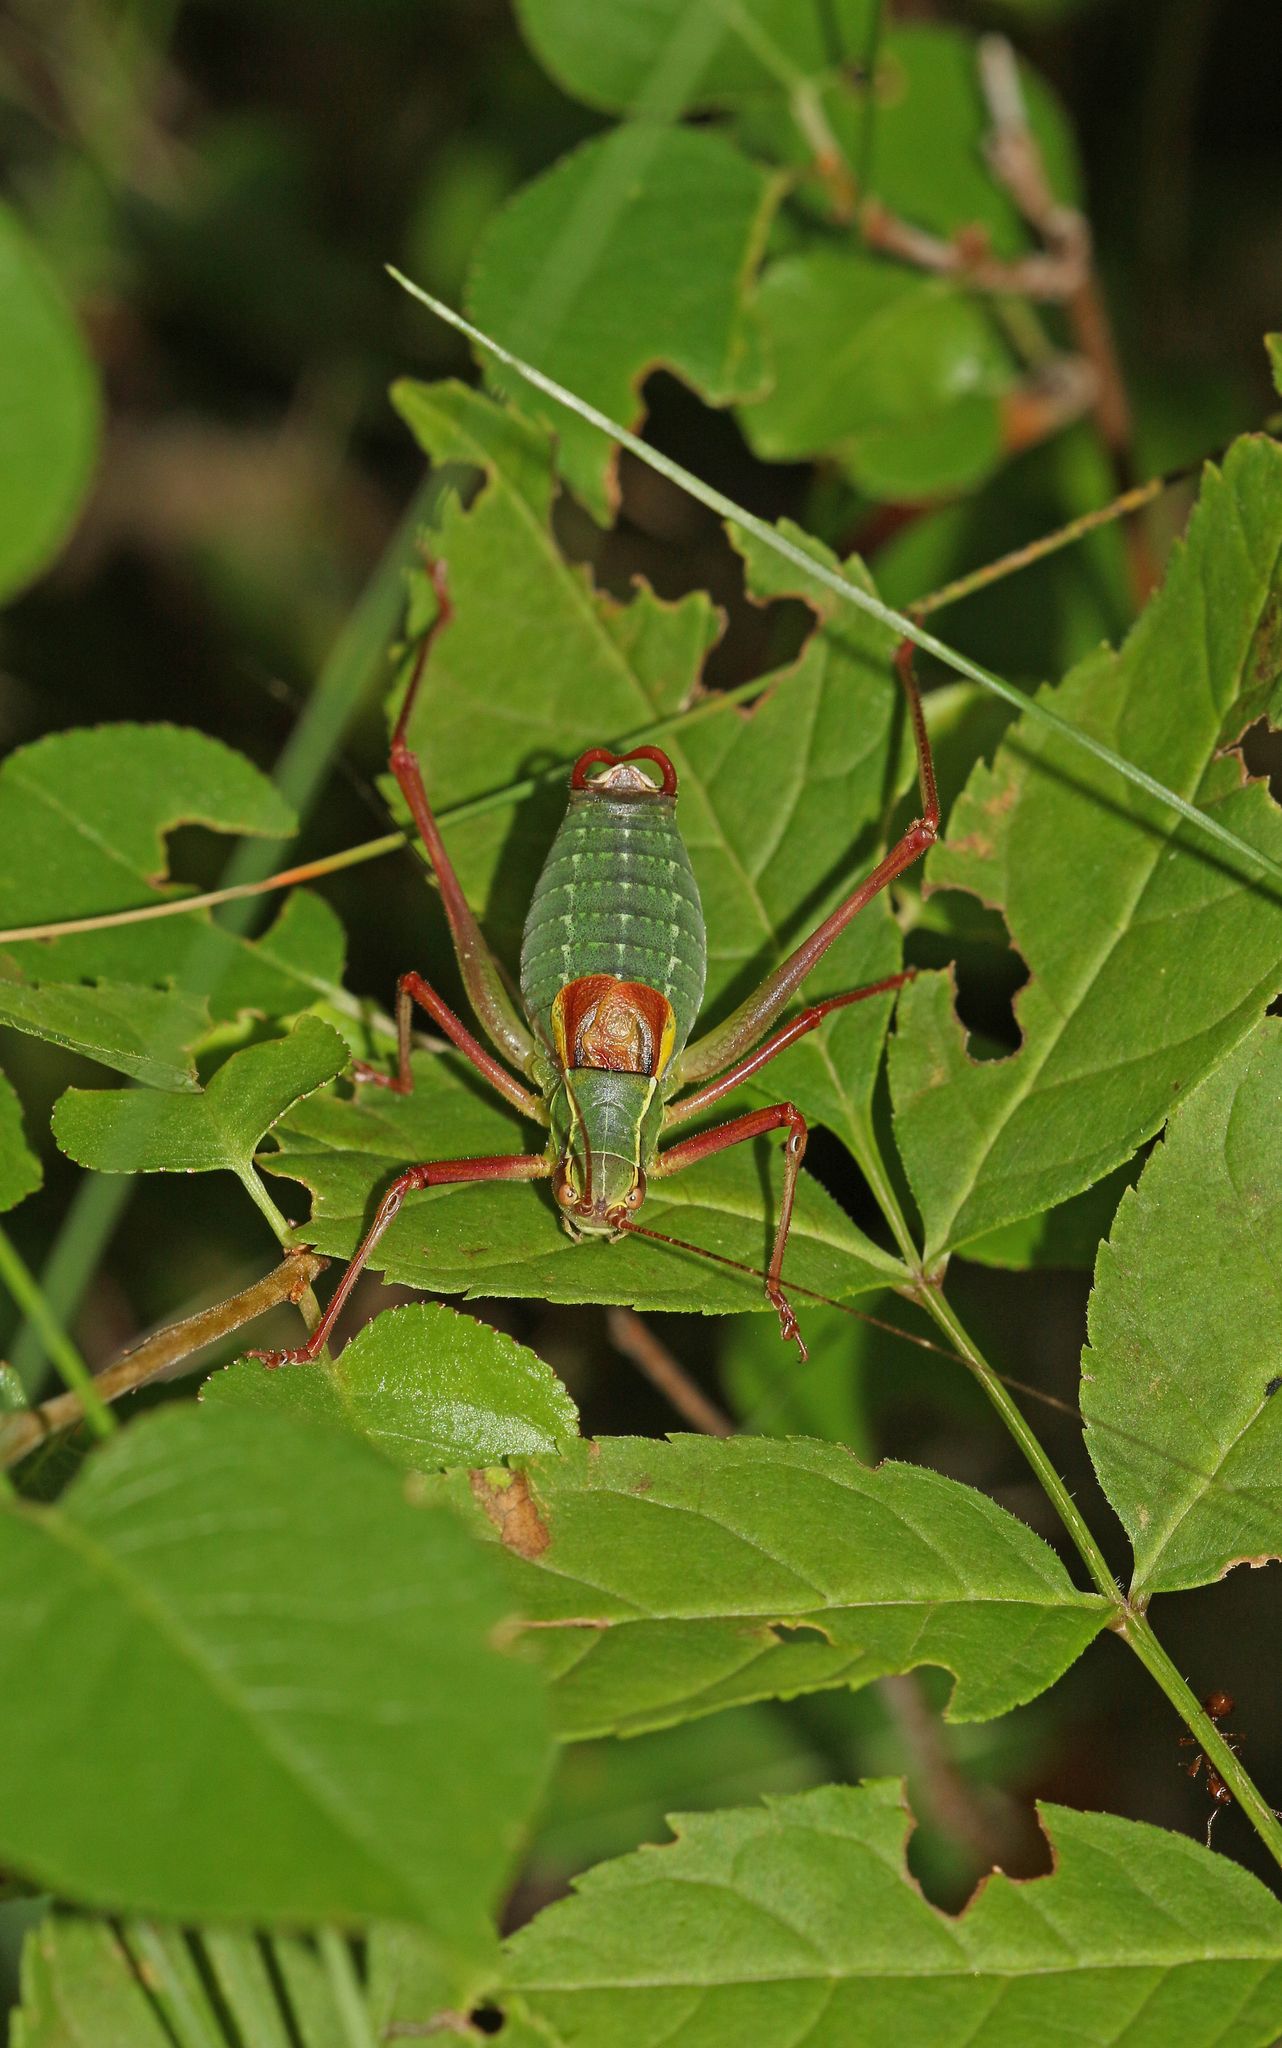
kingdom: Animalia
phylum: Arthropoda
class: Insecta
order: Orthoptera
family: Tettigoniidae
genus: Barbitistes
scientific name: Barbitistes obtusus
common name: Alpine saw bush-cricket
